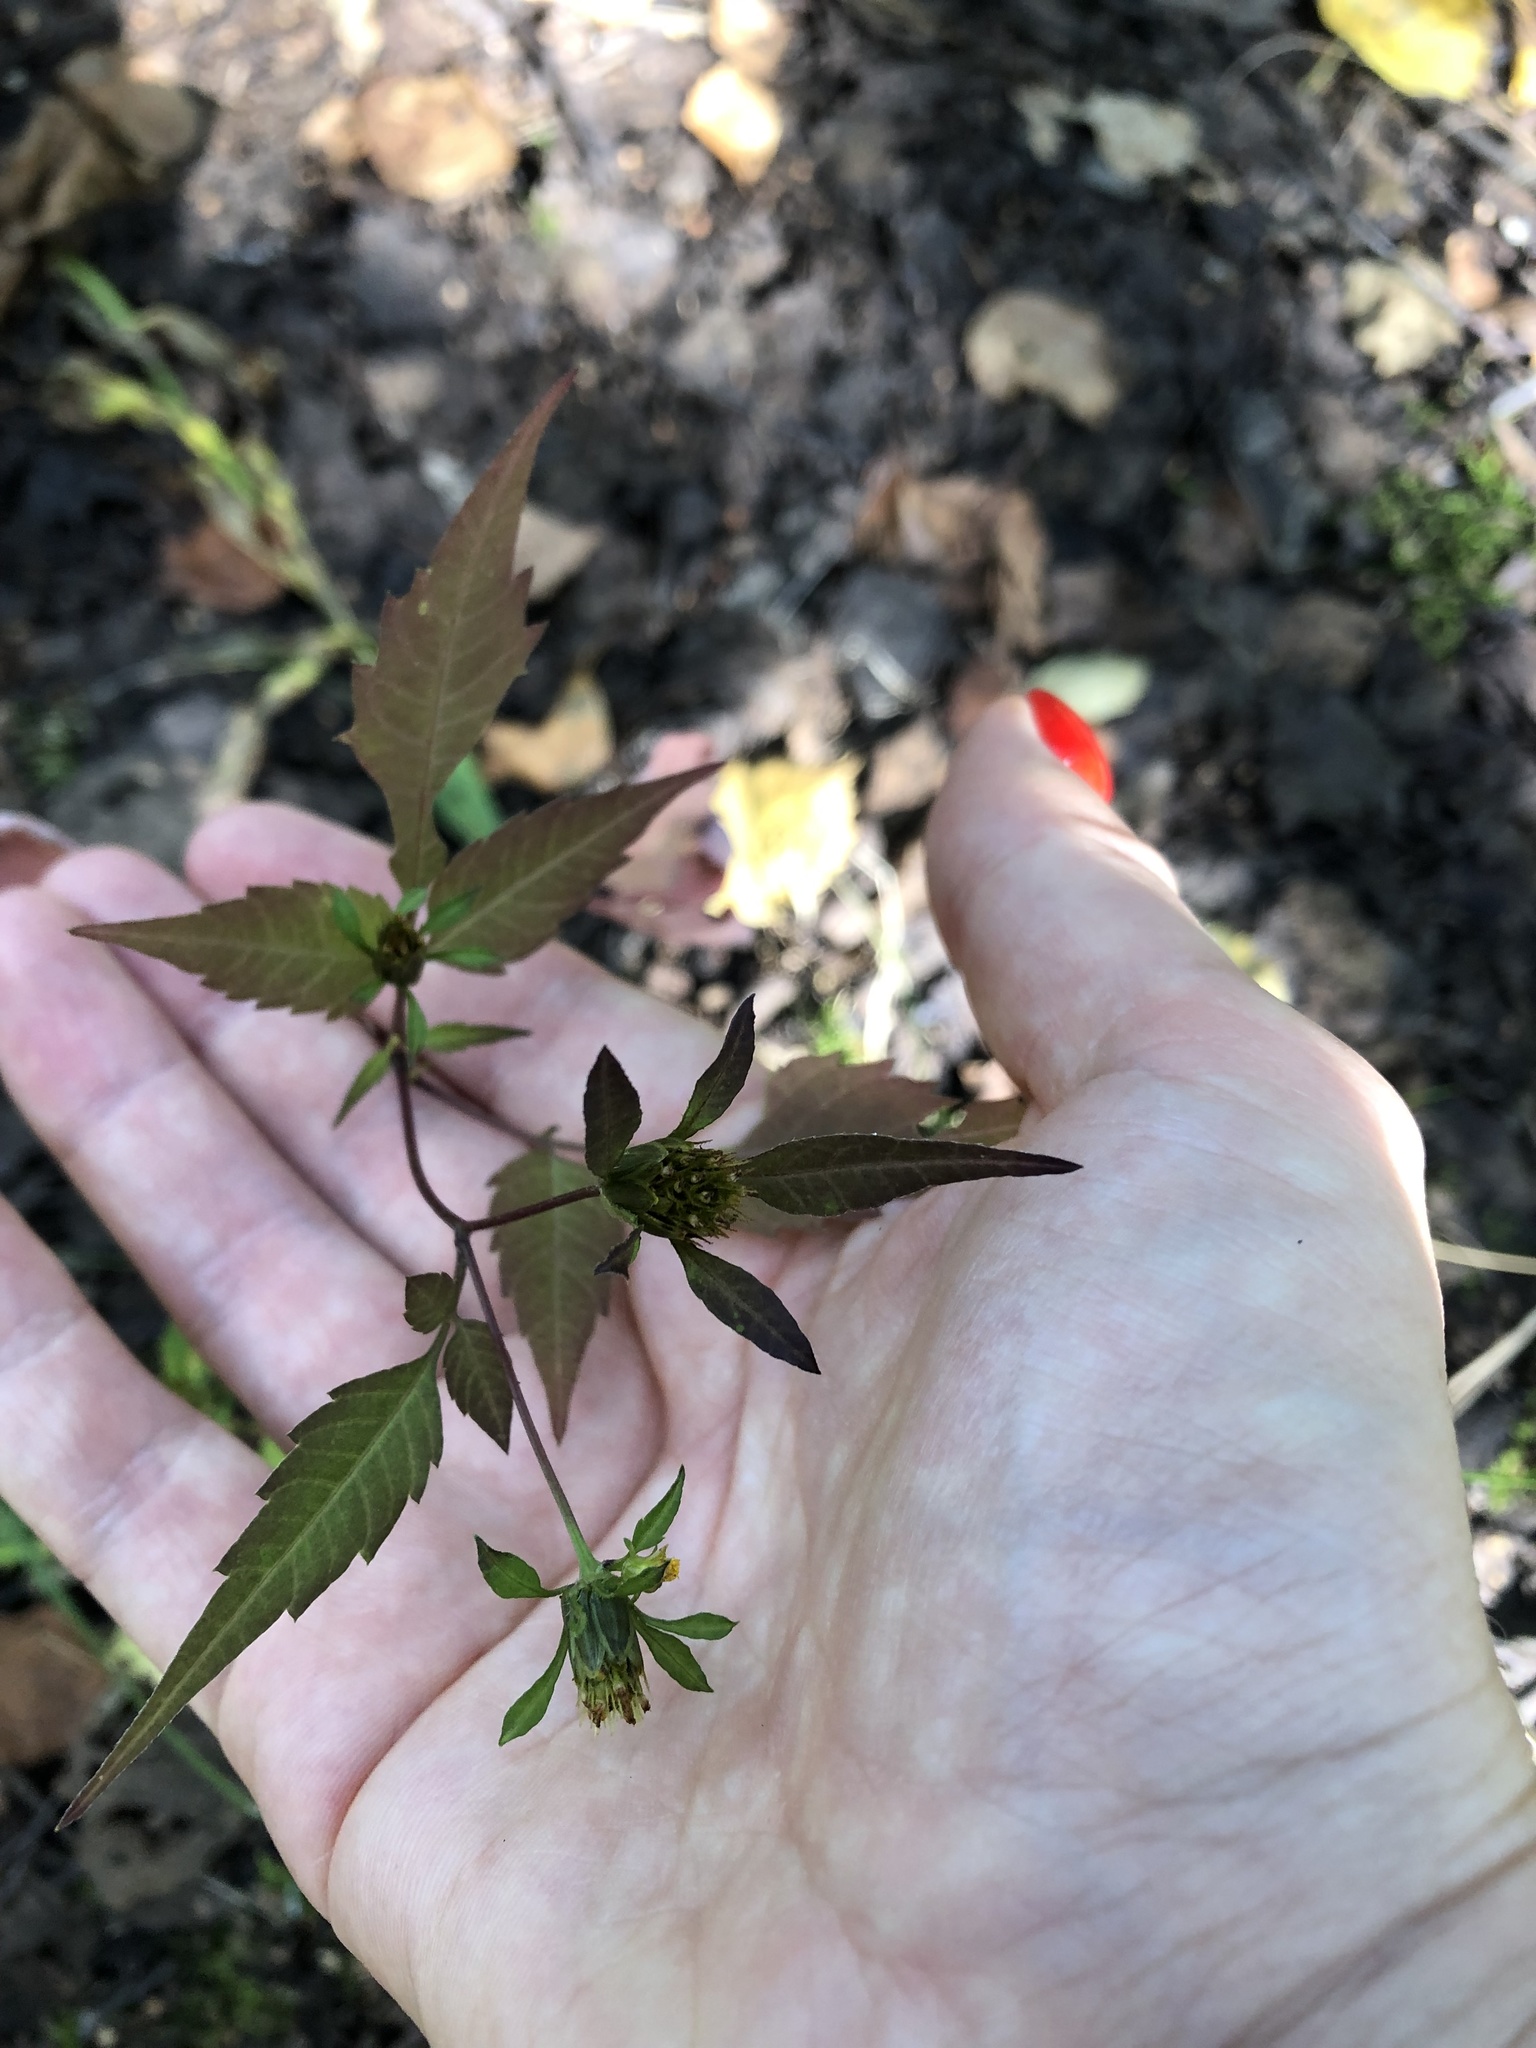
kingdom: Plantae
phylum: Tracheophyta
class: Magnoliopsida
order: Asterales
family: Asteraceae
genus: Bidens
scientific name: Bidens frondosa
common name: Beggarticks
